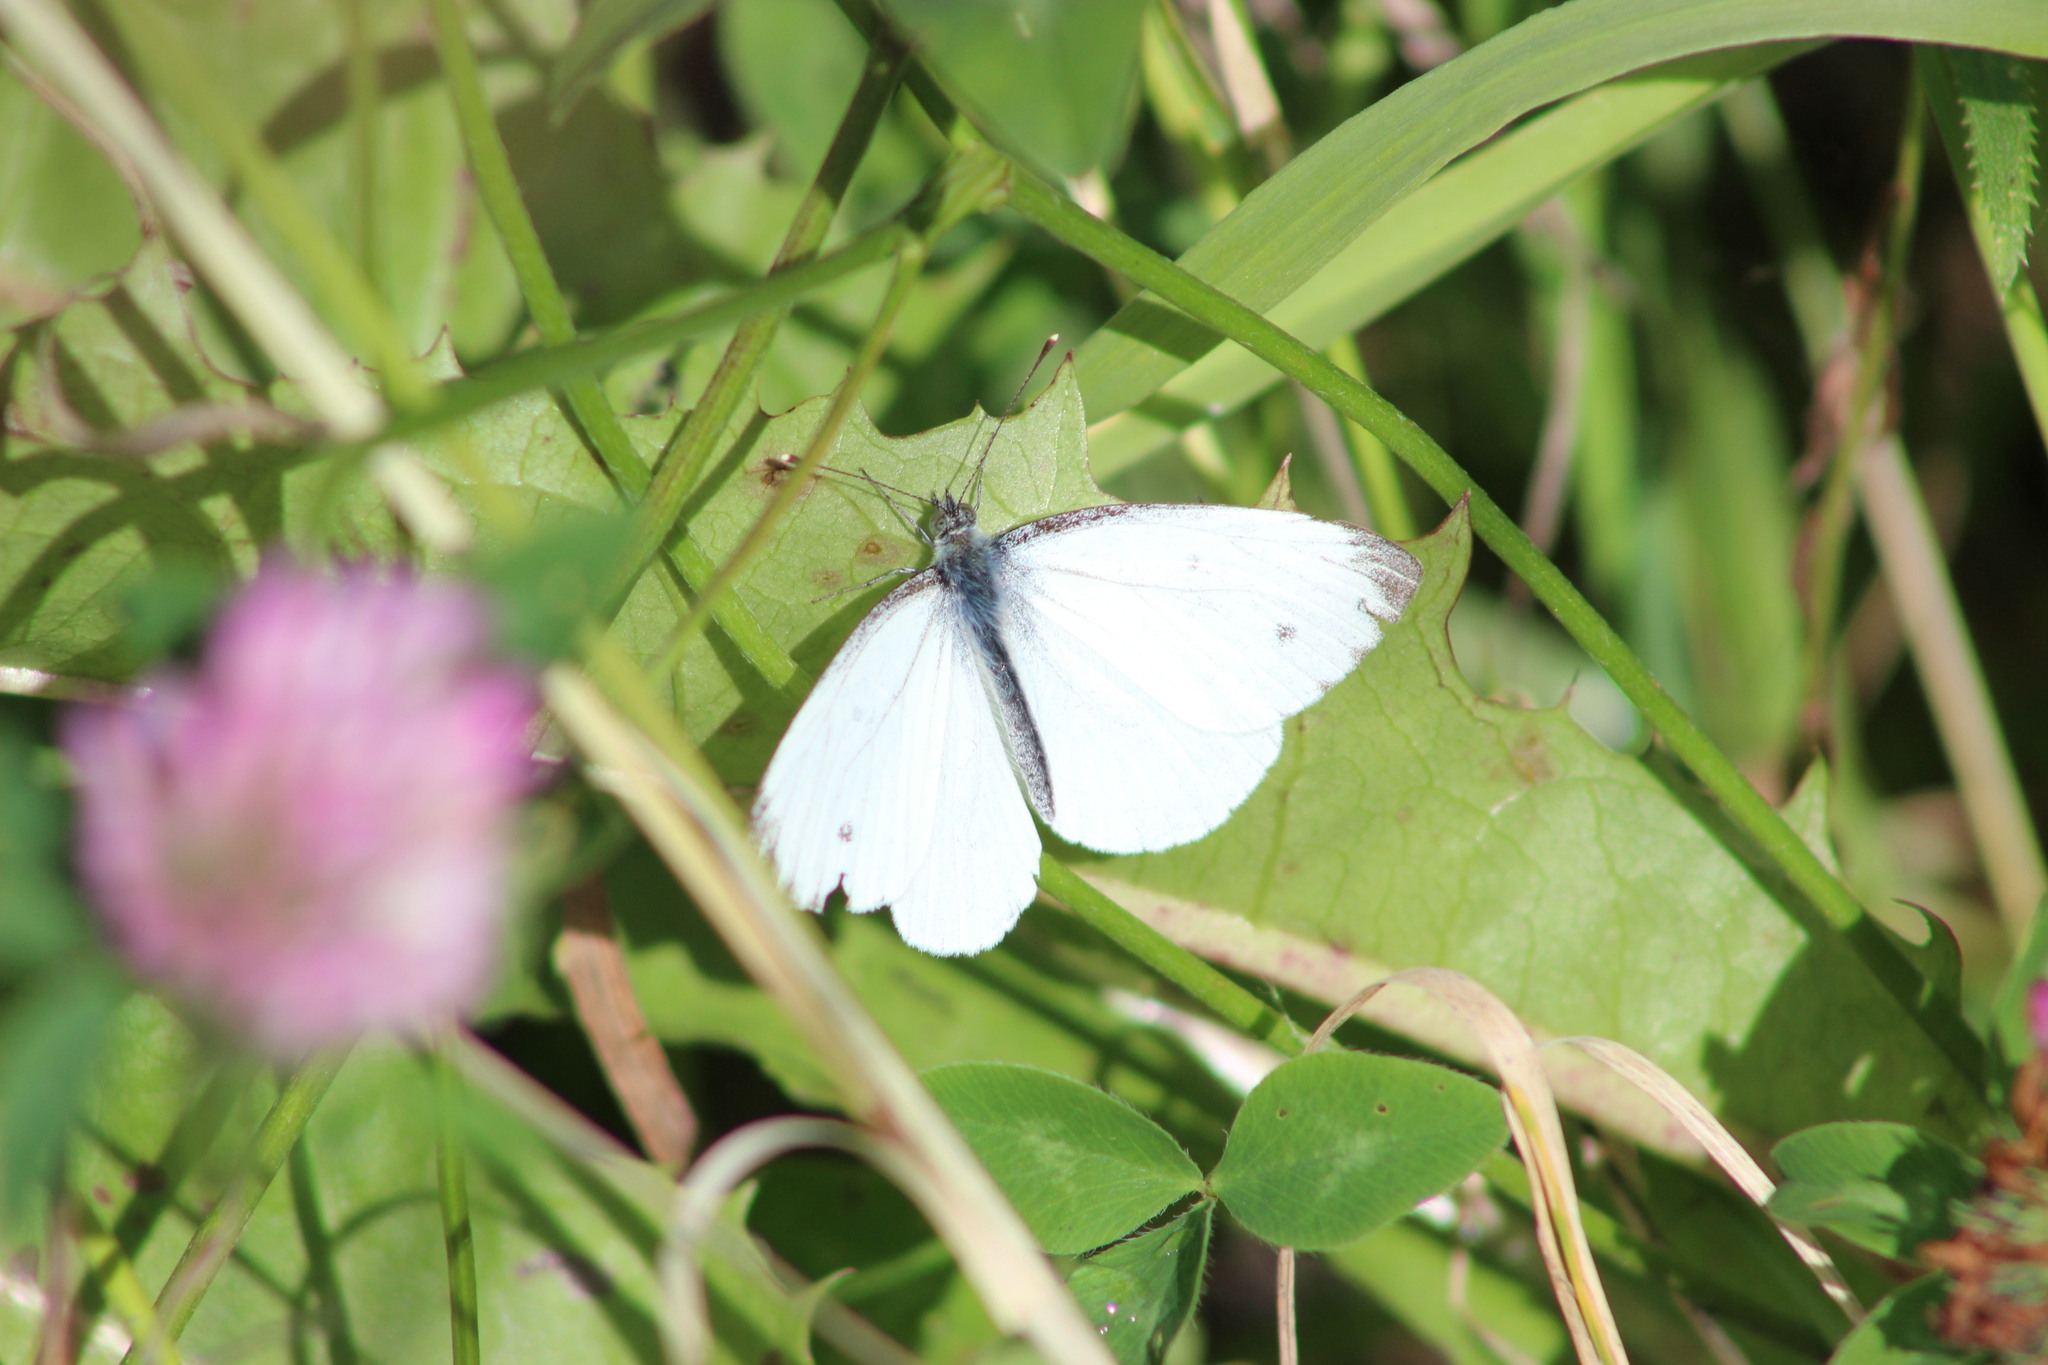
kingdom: Animalia
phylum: Arthropoda
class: Insecta
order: Lepidoptera
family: Pieridae
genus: Pieris
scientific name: Pieris napi
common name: Green-veined white
